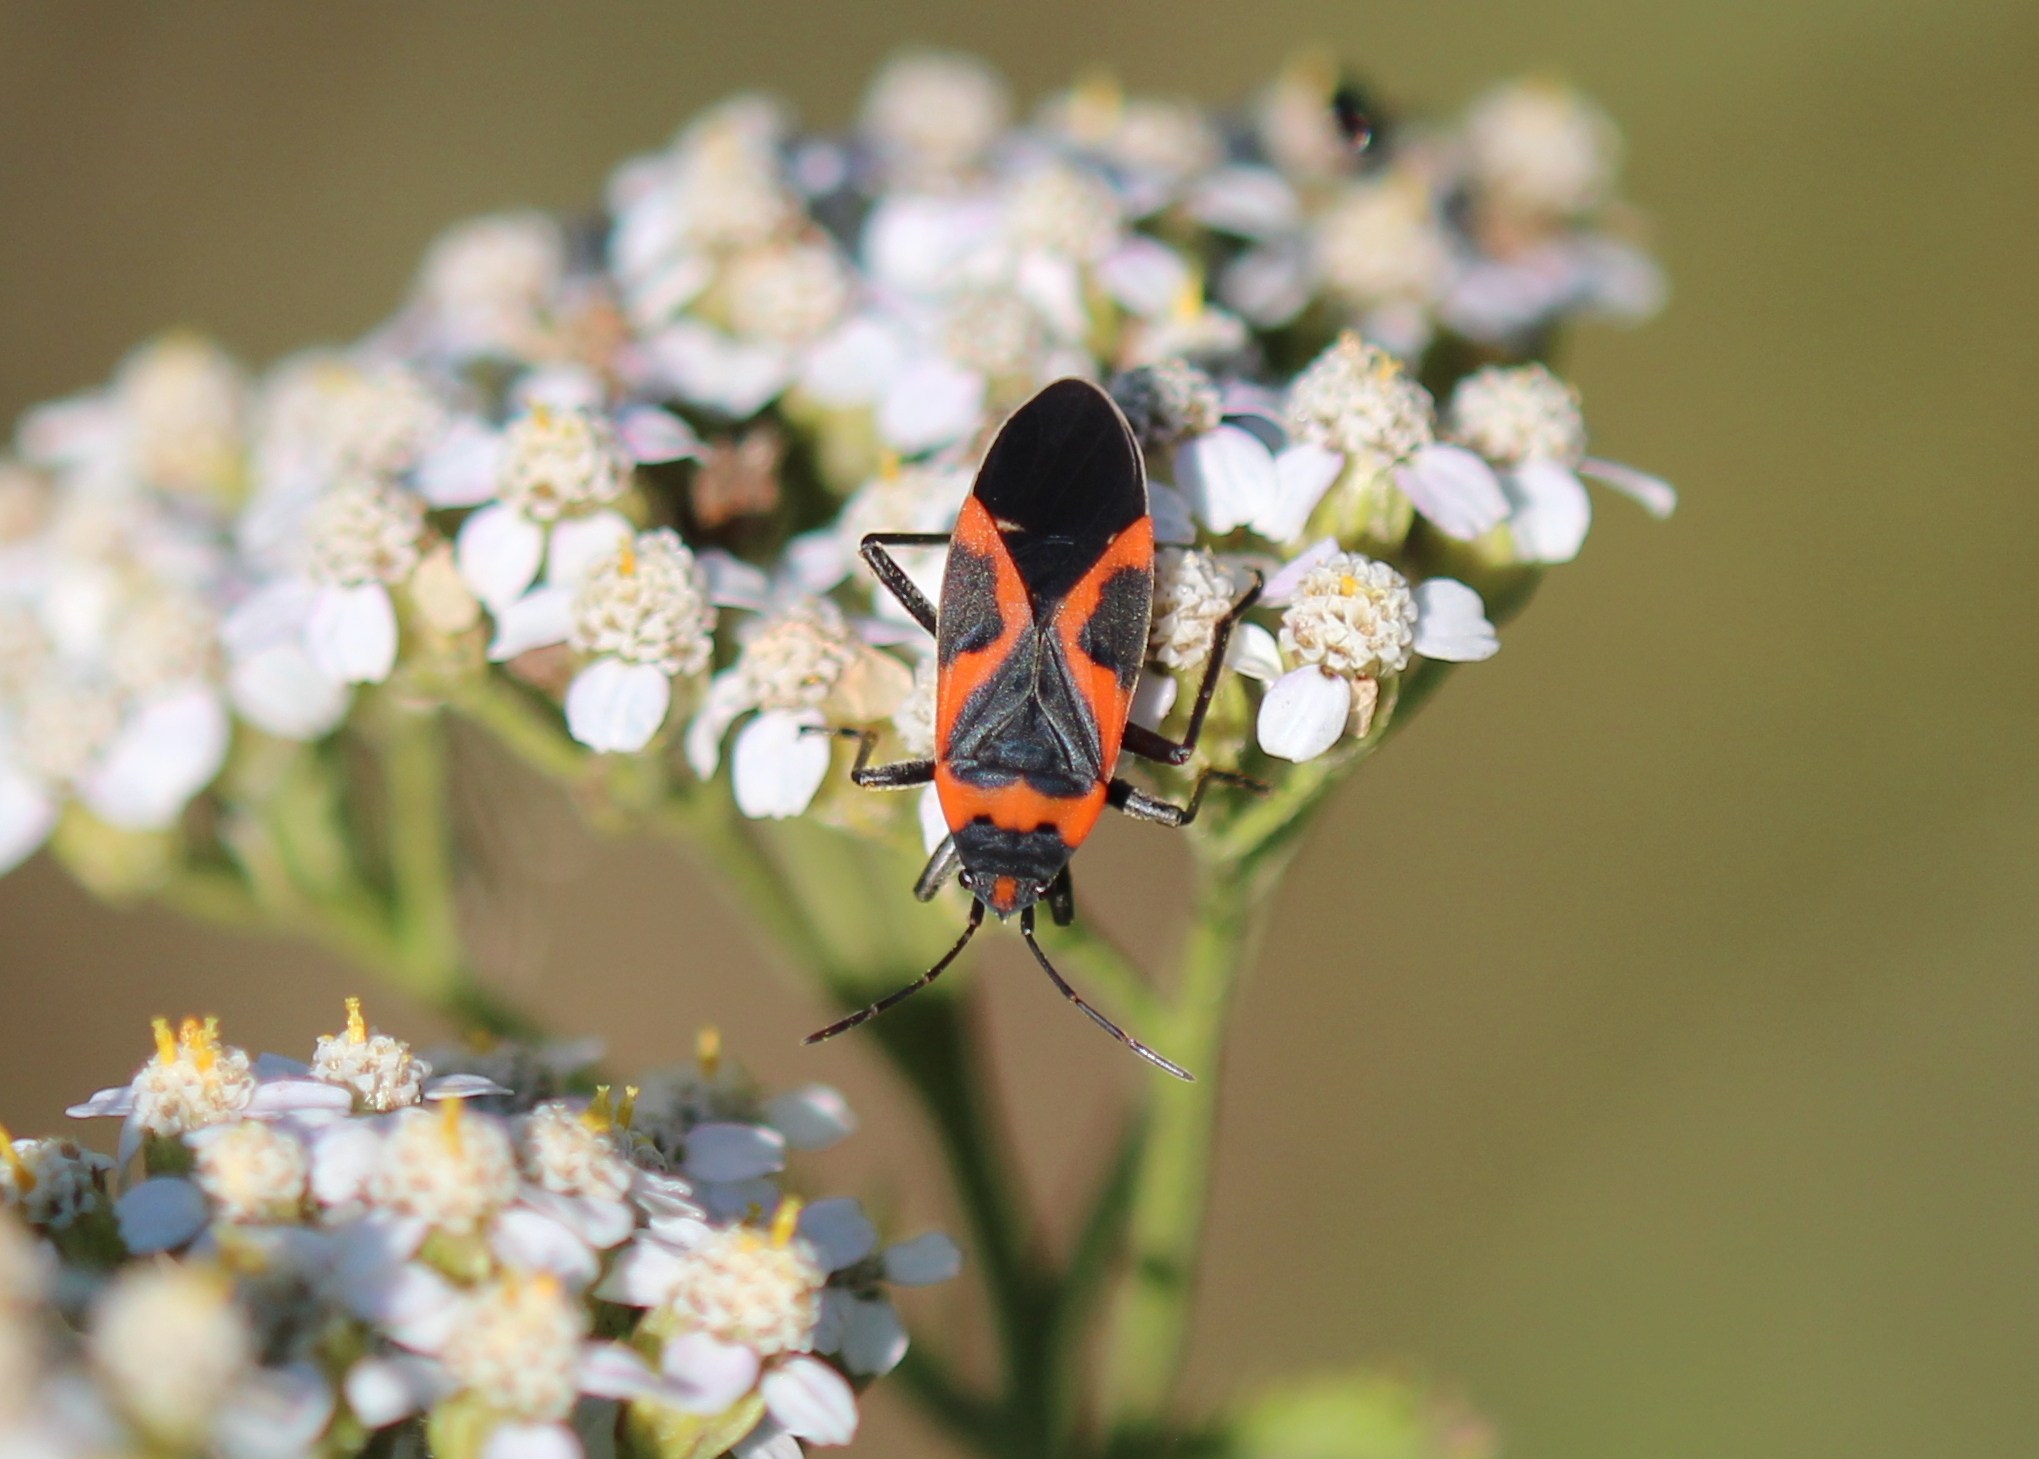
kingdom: Animalia
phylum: Arthropoda
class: Insecta
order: Hemiptera
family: Lygaeidae
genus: Lygaeus
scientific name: Lygaeus kalmii
